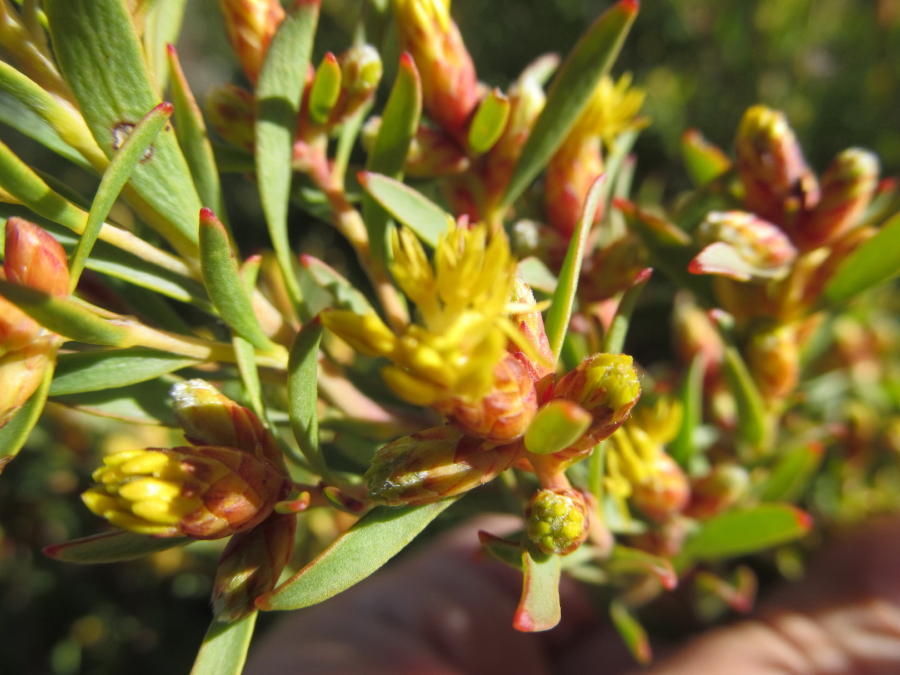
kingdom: Plantae
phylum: Tracheophyta
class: Magnoliopsida
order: Proteales
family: Proteaceae
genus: Leucadendron
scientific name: Leucadendron rubrum
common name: Spinning top
